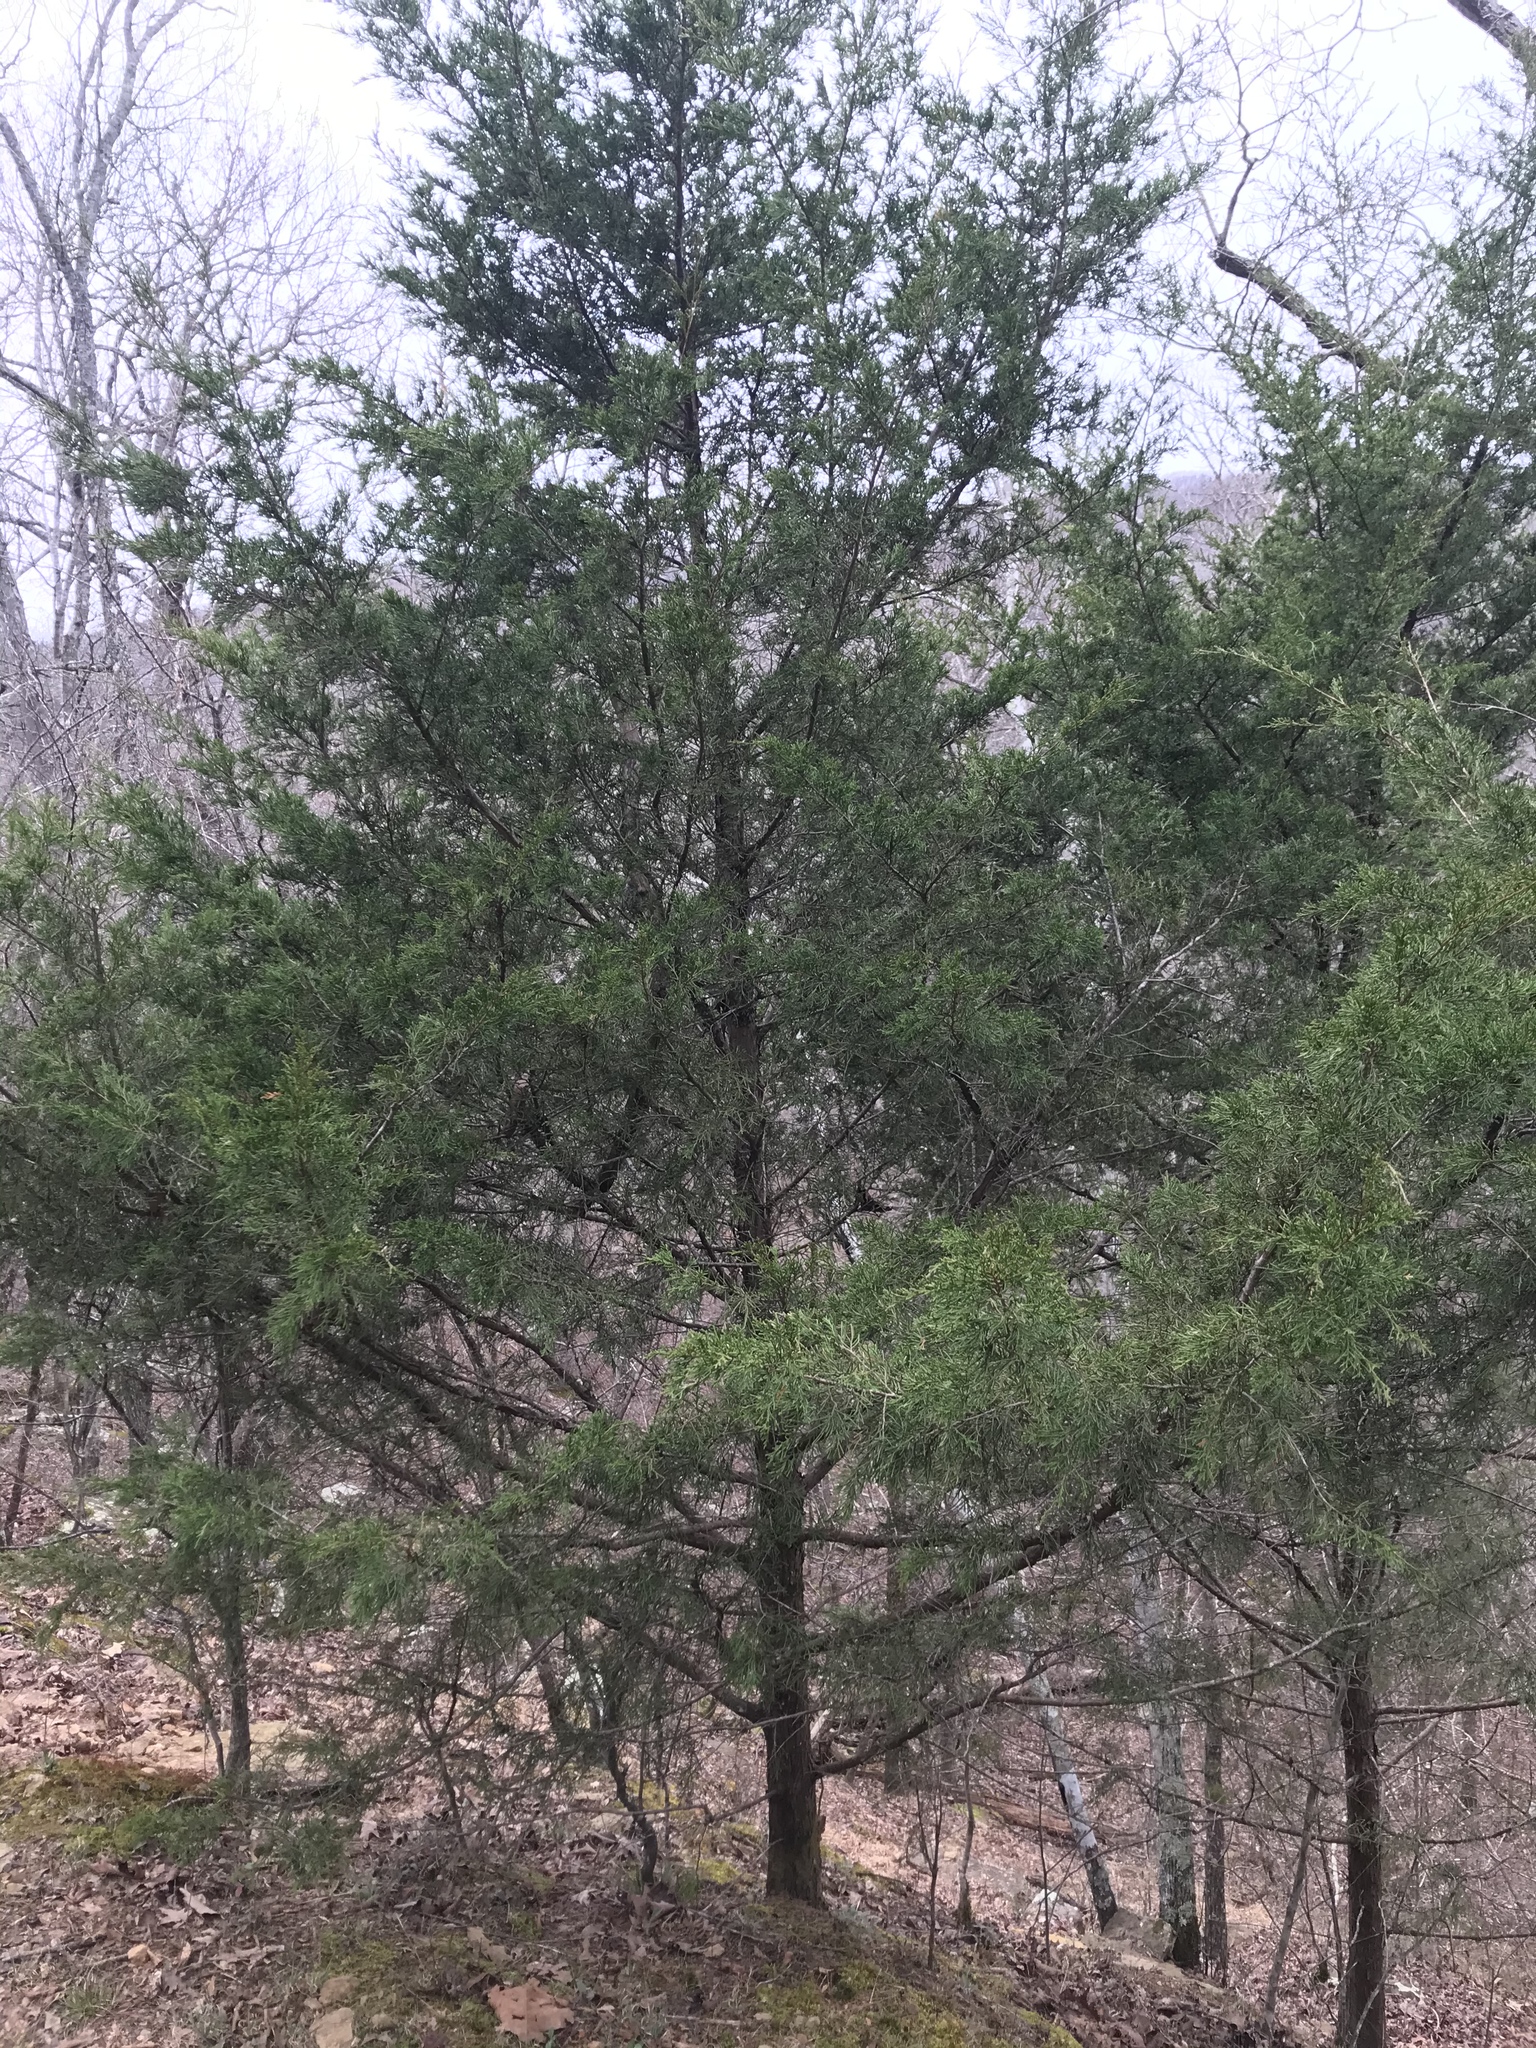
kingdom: Plantae
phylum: Tracheophyta
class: Pinopsida
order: Pinales
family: Cupressaceae
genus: Juniperus
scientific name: Juniperus virginiana
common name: Red juniper
